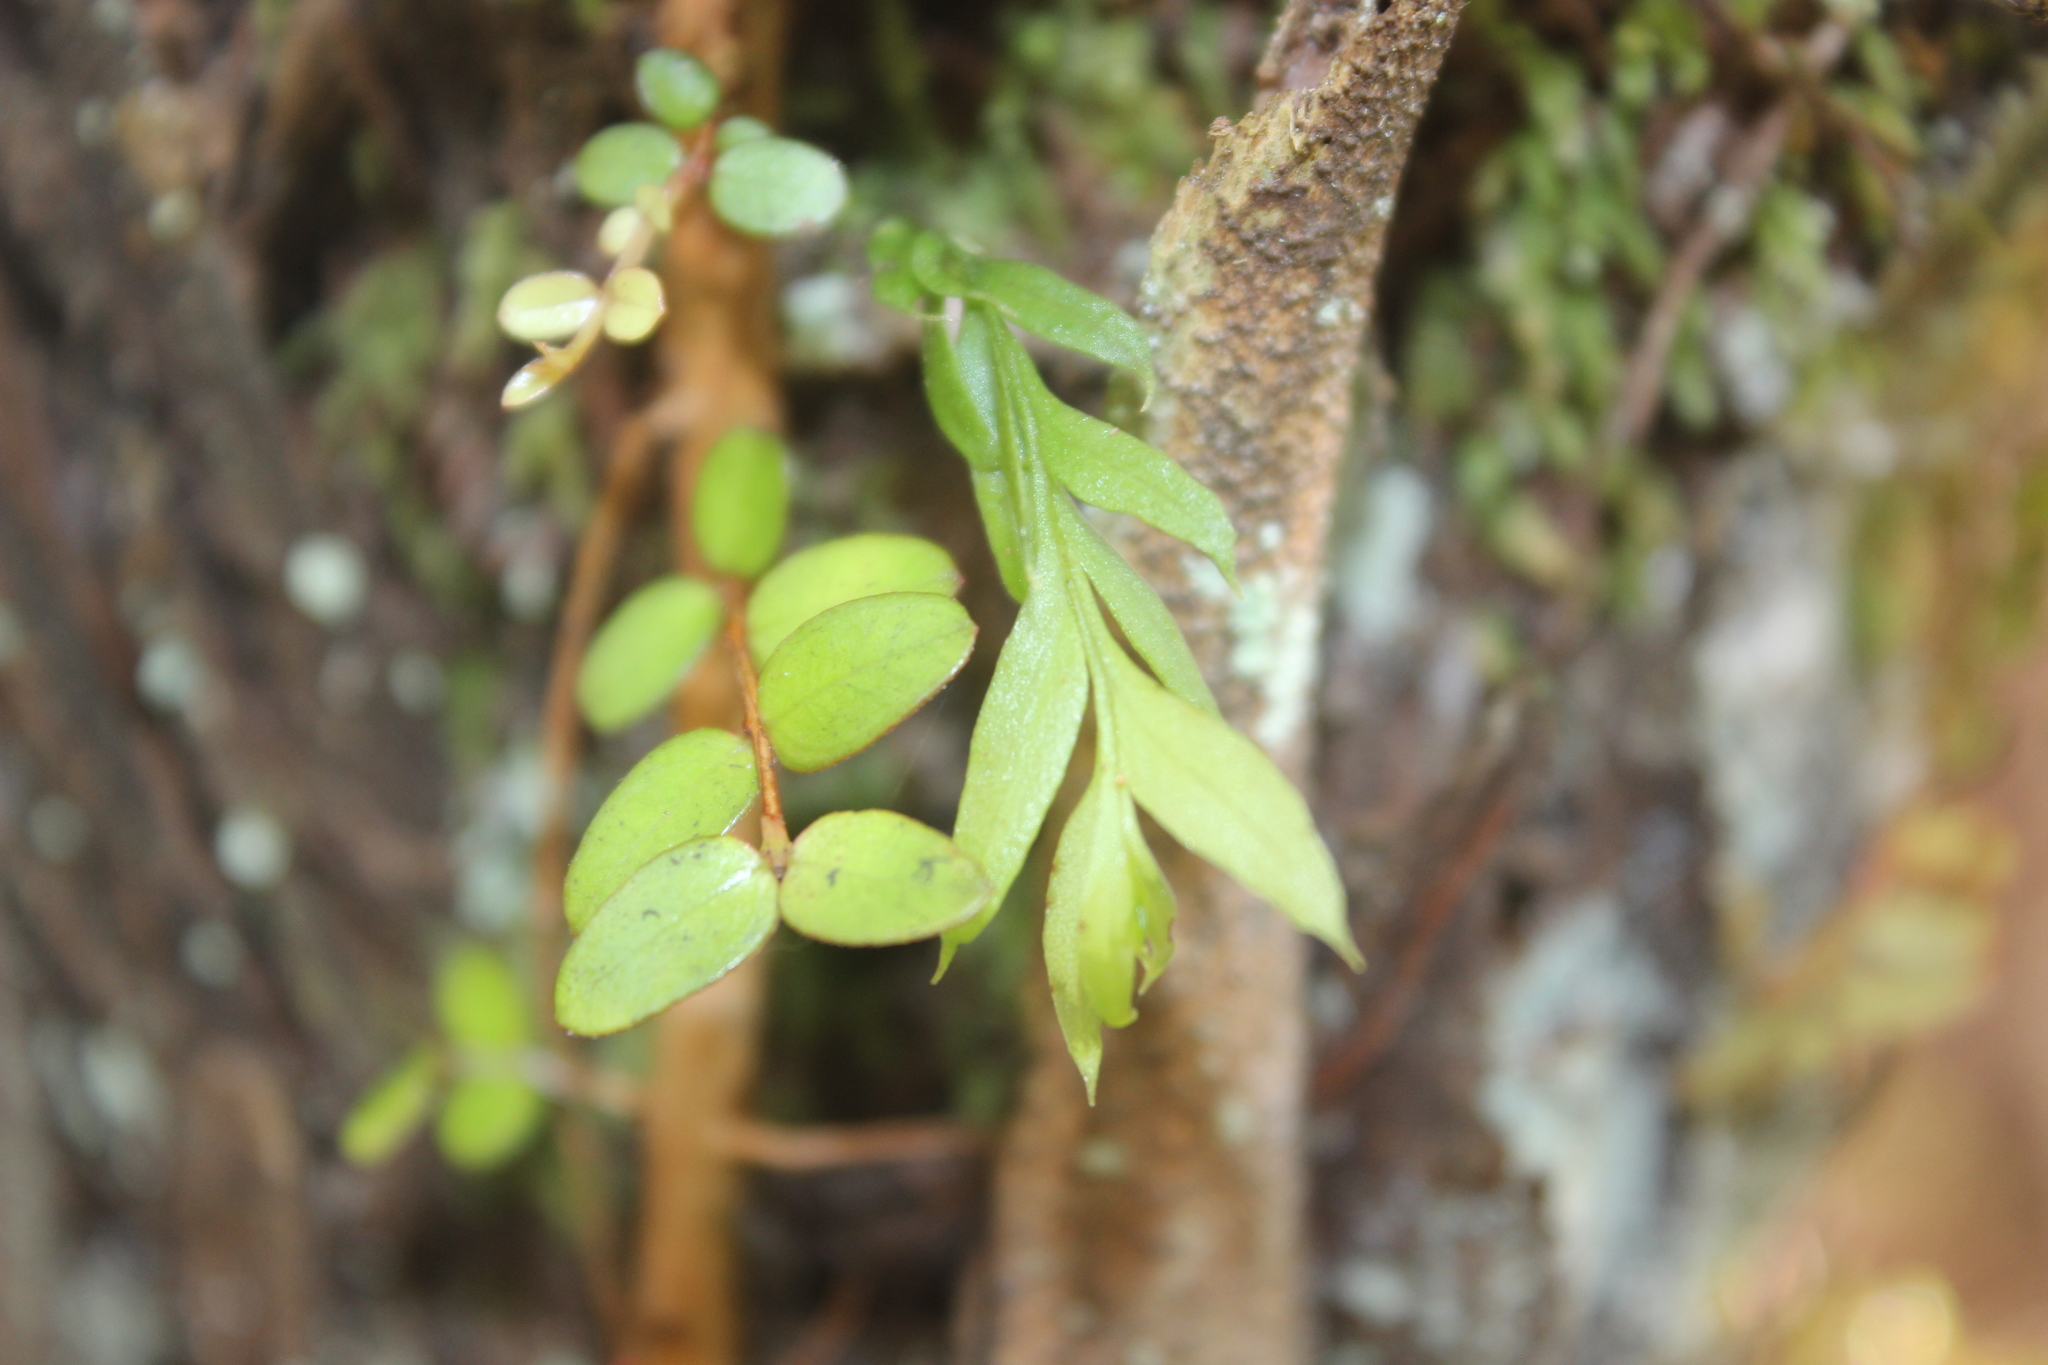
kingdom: Plantae
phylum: Tracheophyta
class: Polypodiopsida
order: Psilotales
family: Psilotaceae
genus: Tmesipteris
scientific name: Tmesipteris elongata
